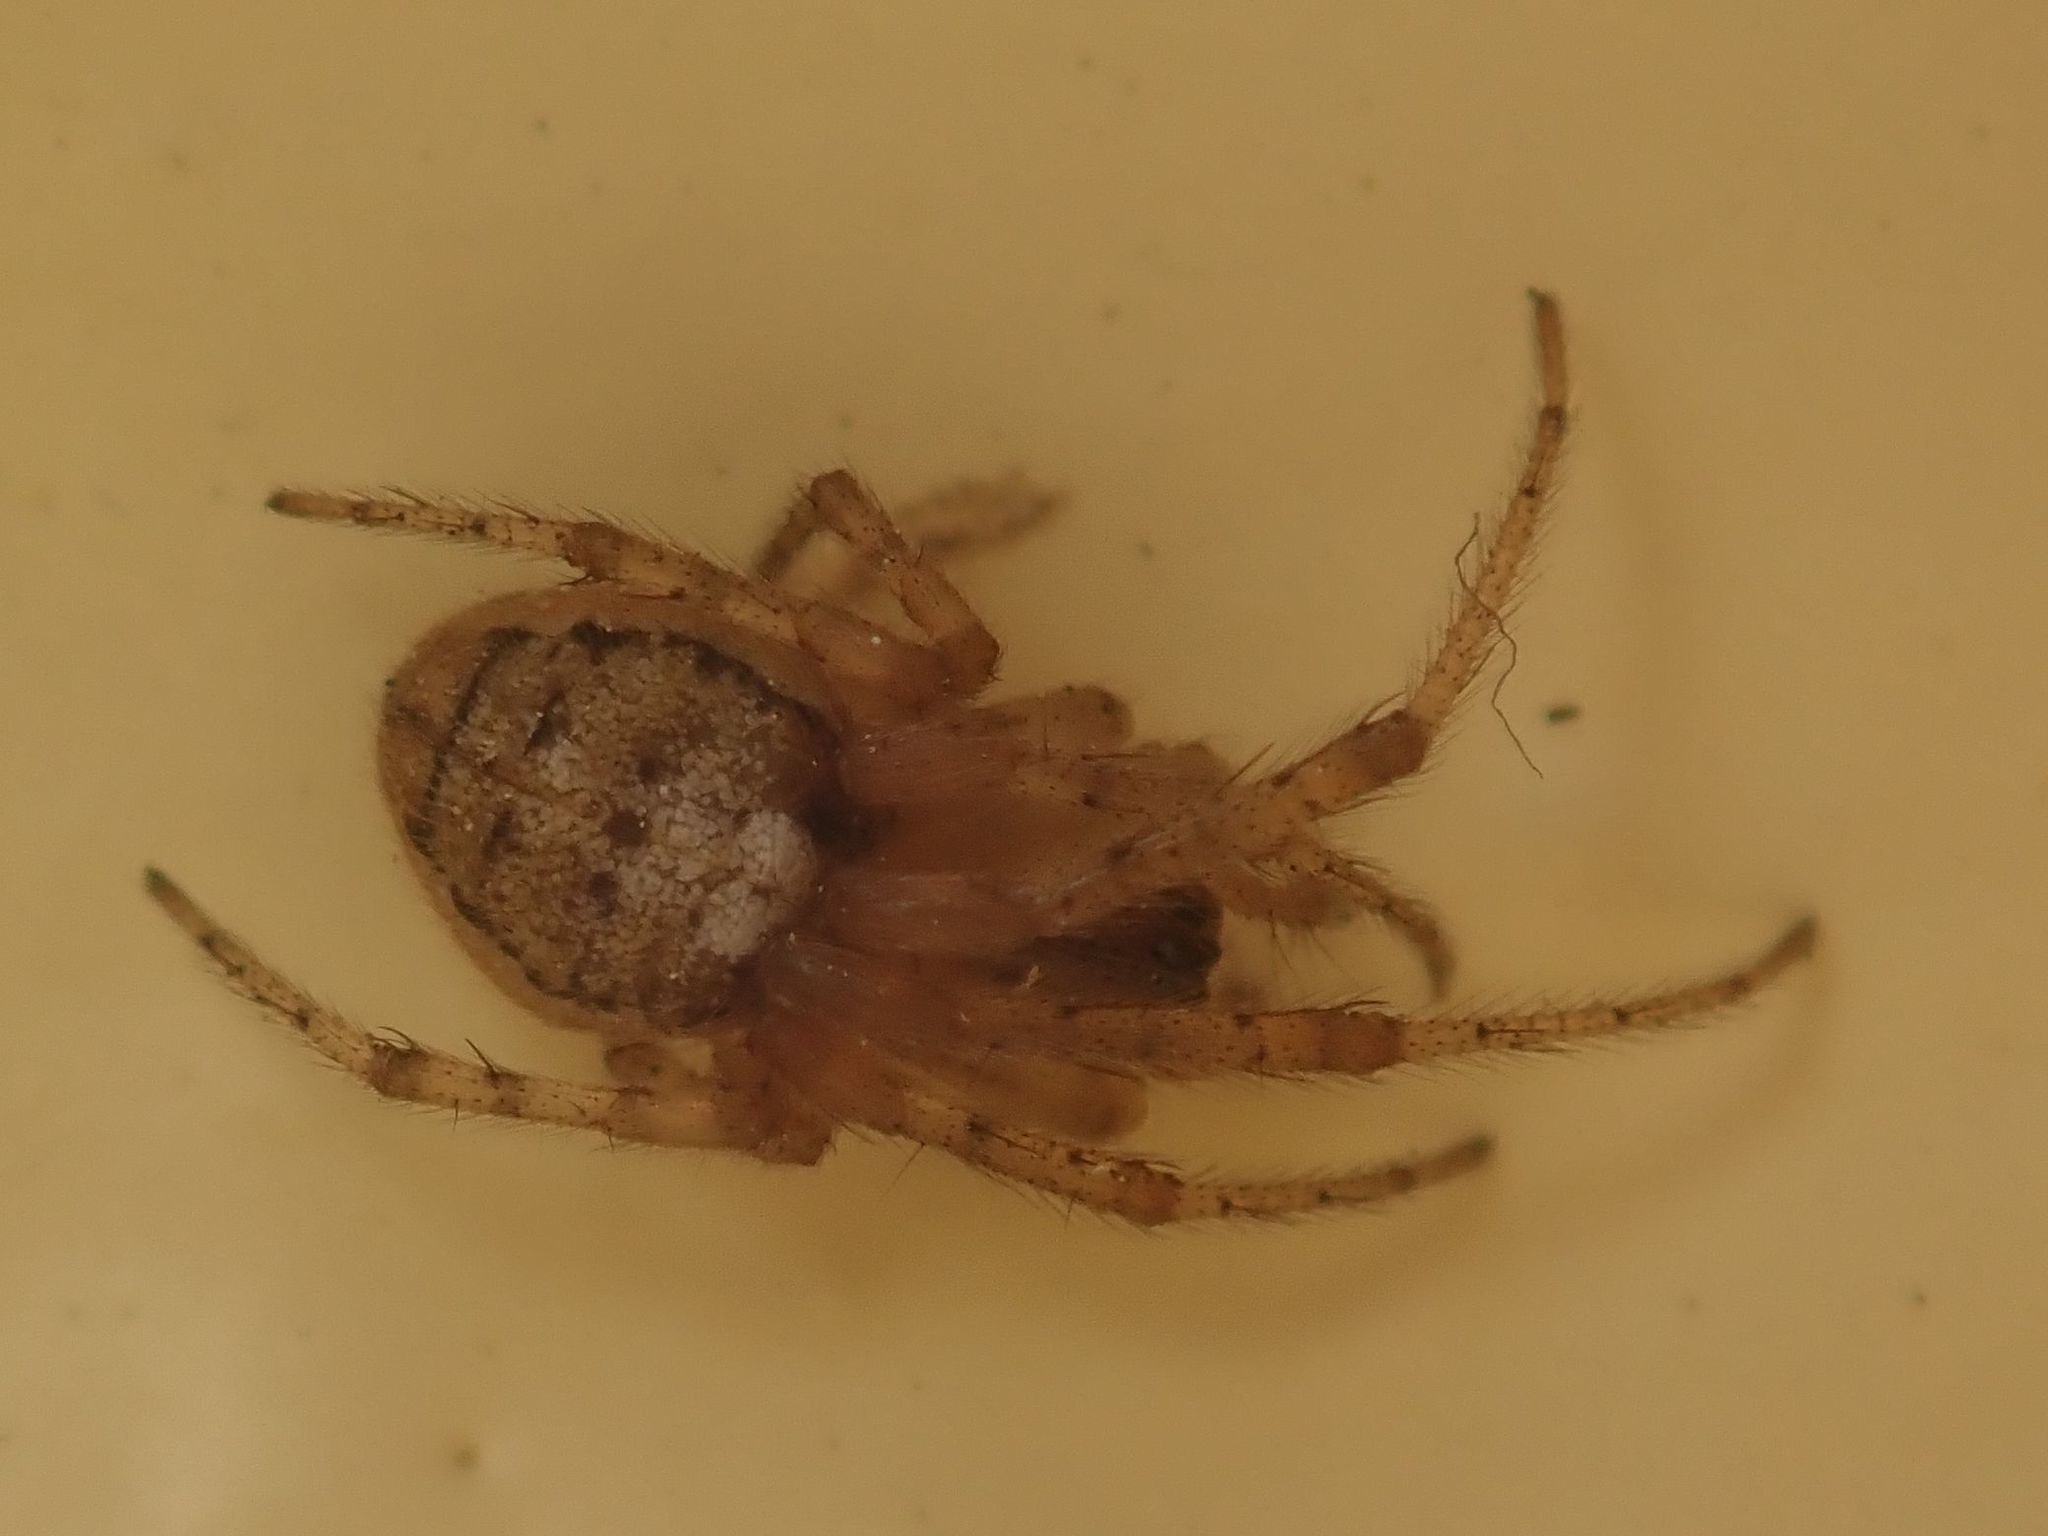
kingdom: Animalia
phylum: Arthropoda
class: Arachnida
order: Araneae
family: Araneidae
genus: Zygiella
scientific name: Zygiella x-notata
